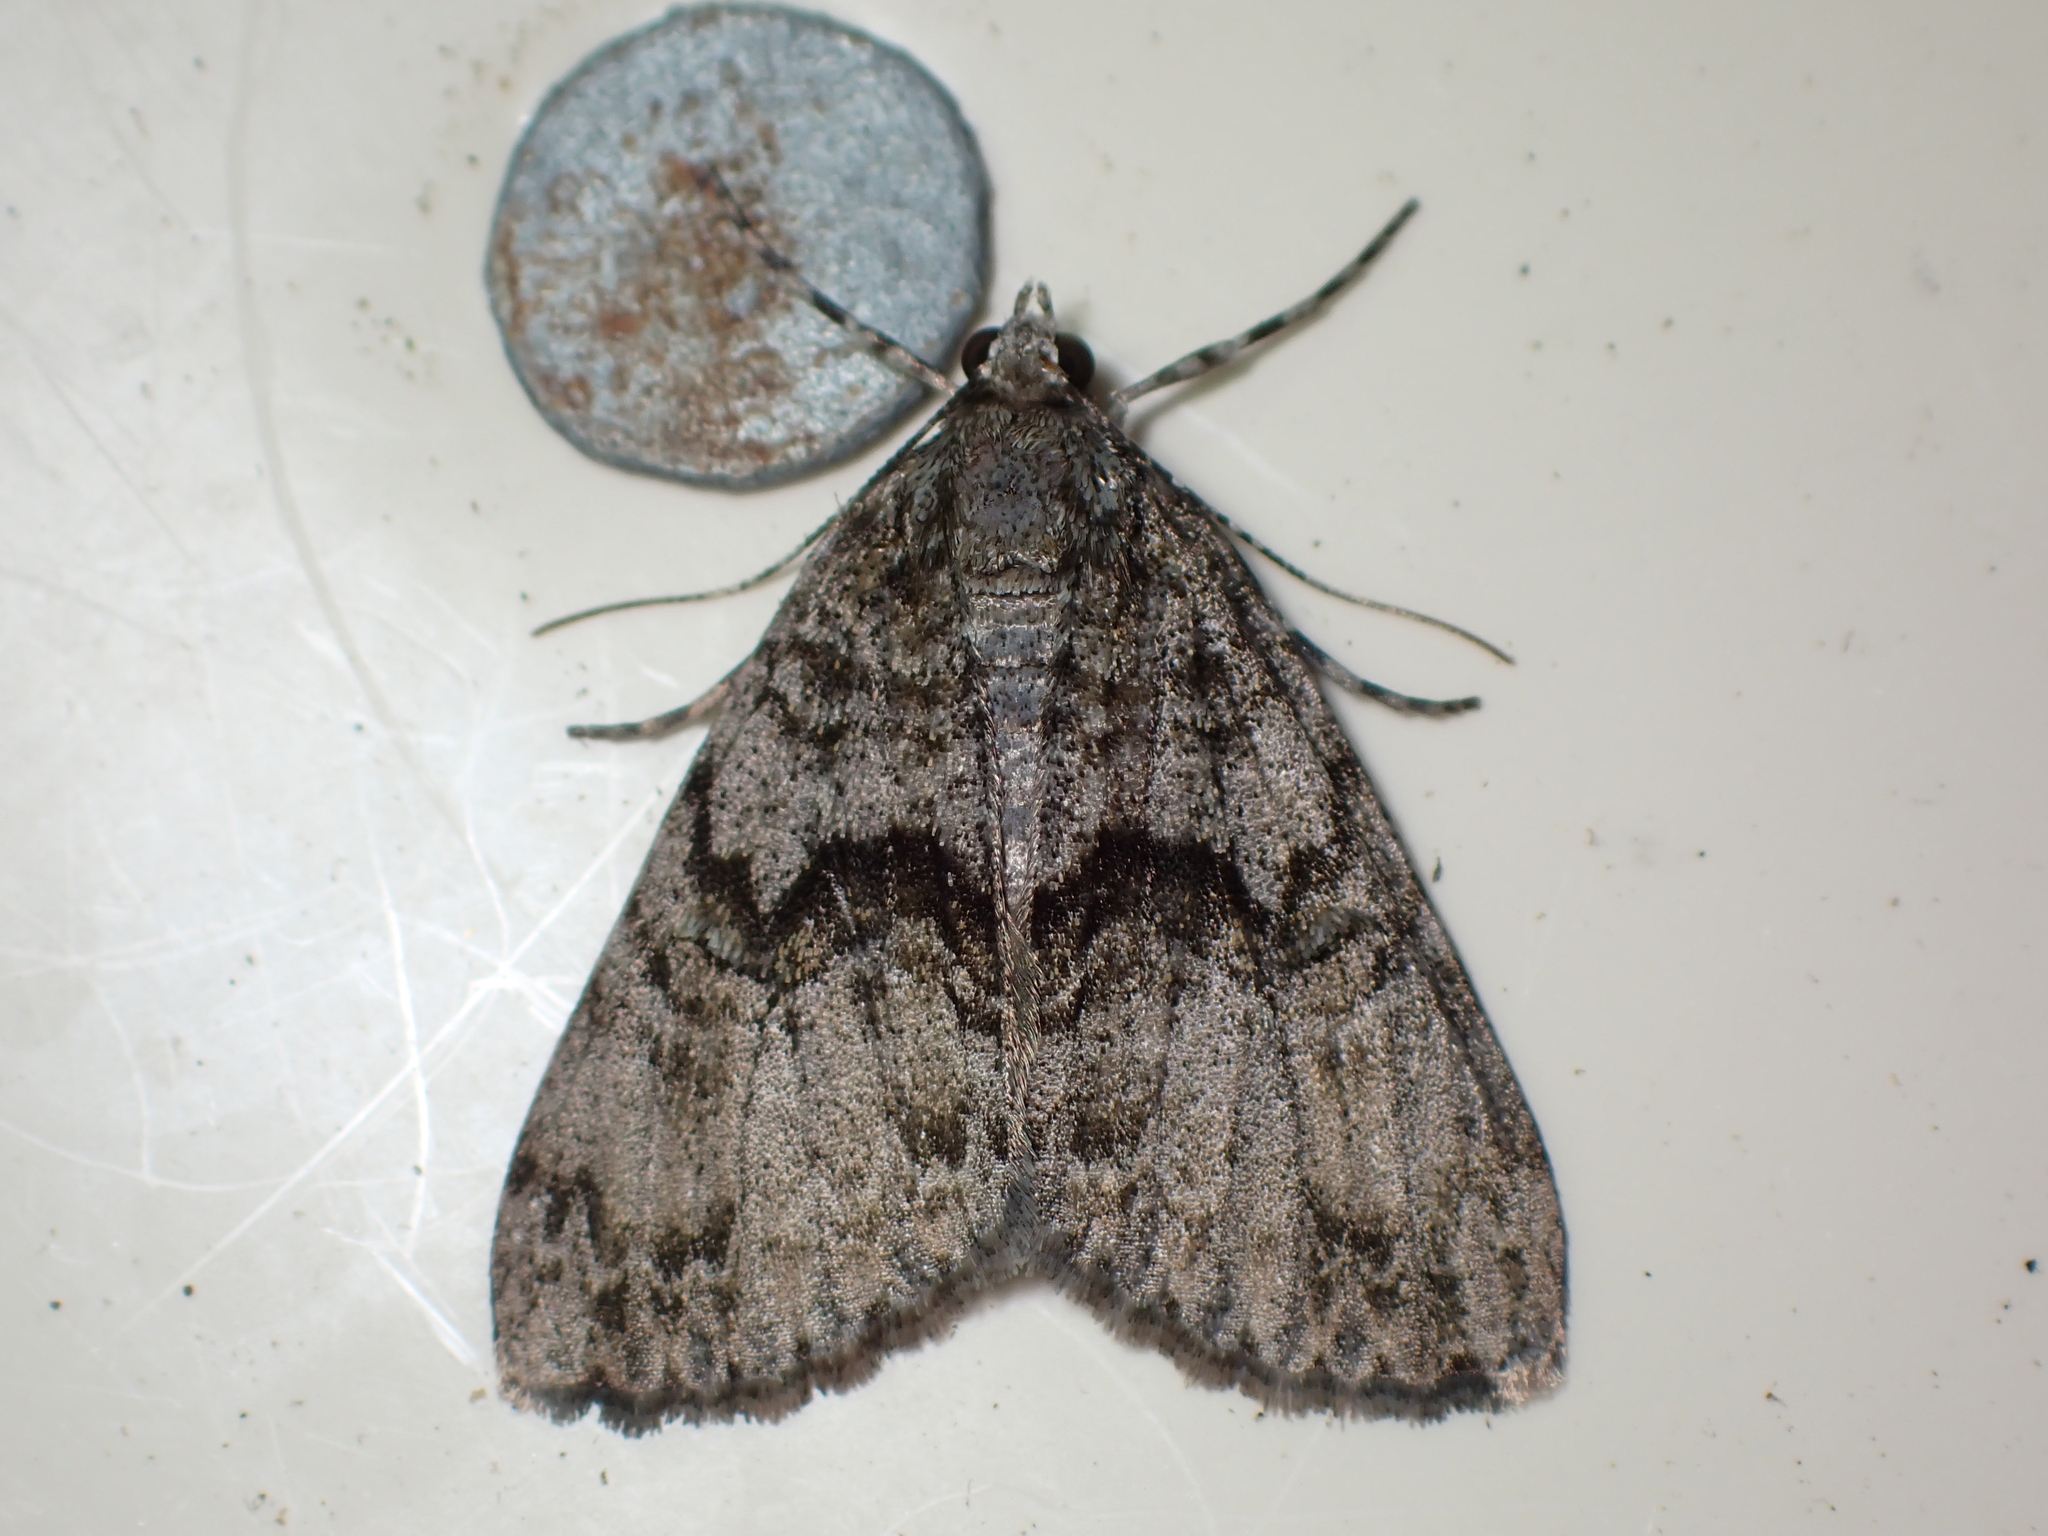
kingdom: Animalia
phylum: Arthropoda
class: Insecta
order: Lepidoptera
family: Geometridae
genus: Pseudocoremia
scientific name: Pseudocoremia suavis
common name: Common forest looper
